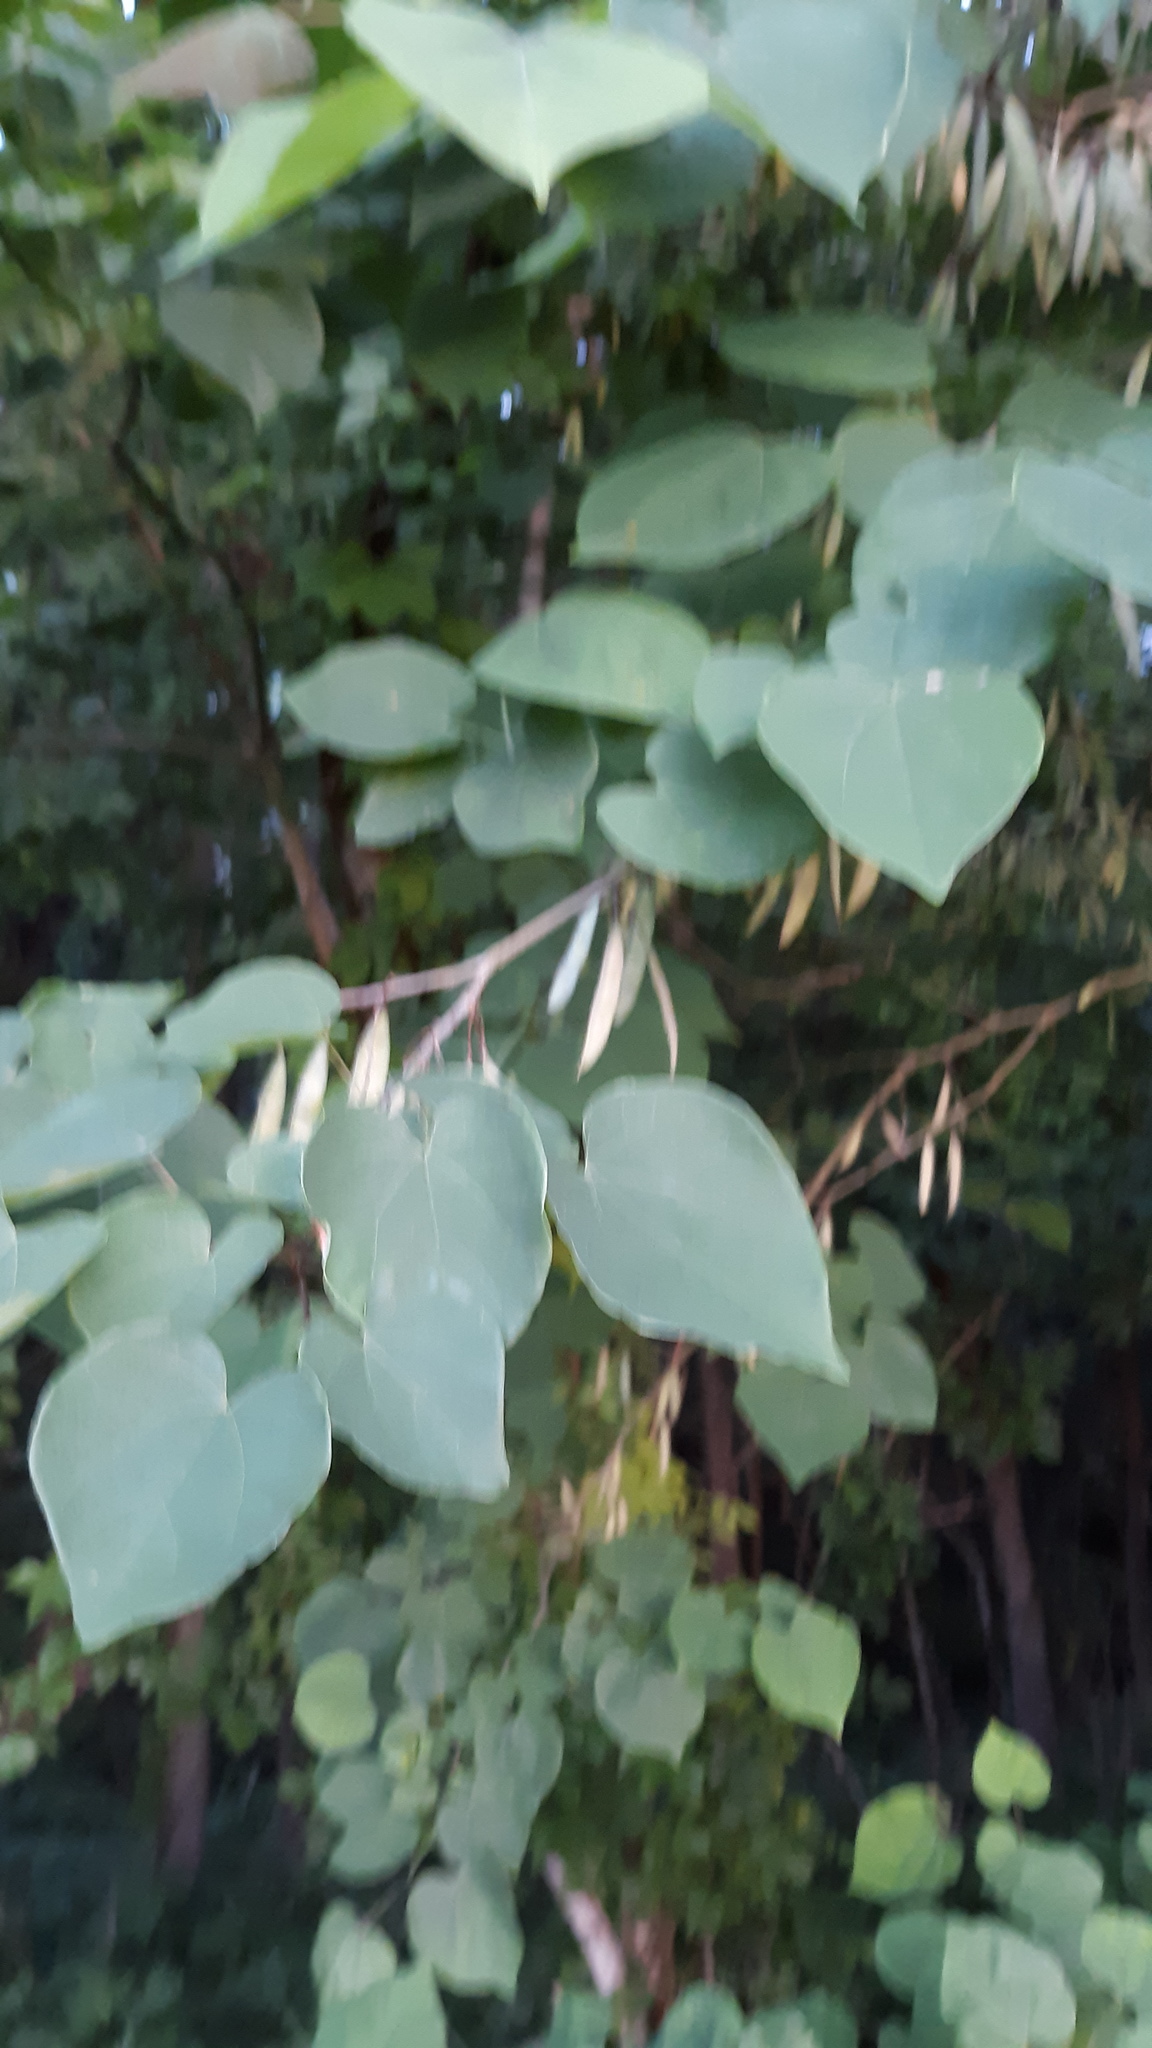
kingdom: Plantae
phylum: Tracheophyta
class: Magnoliopsida
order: Fabales
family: Fabaceae
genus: Cercis
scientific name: Cercis canadensis
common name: Eastern redbud
